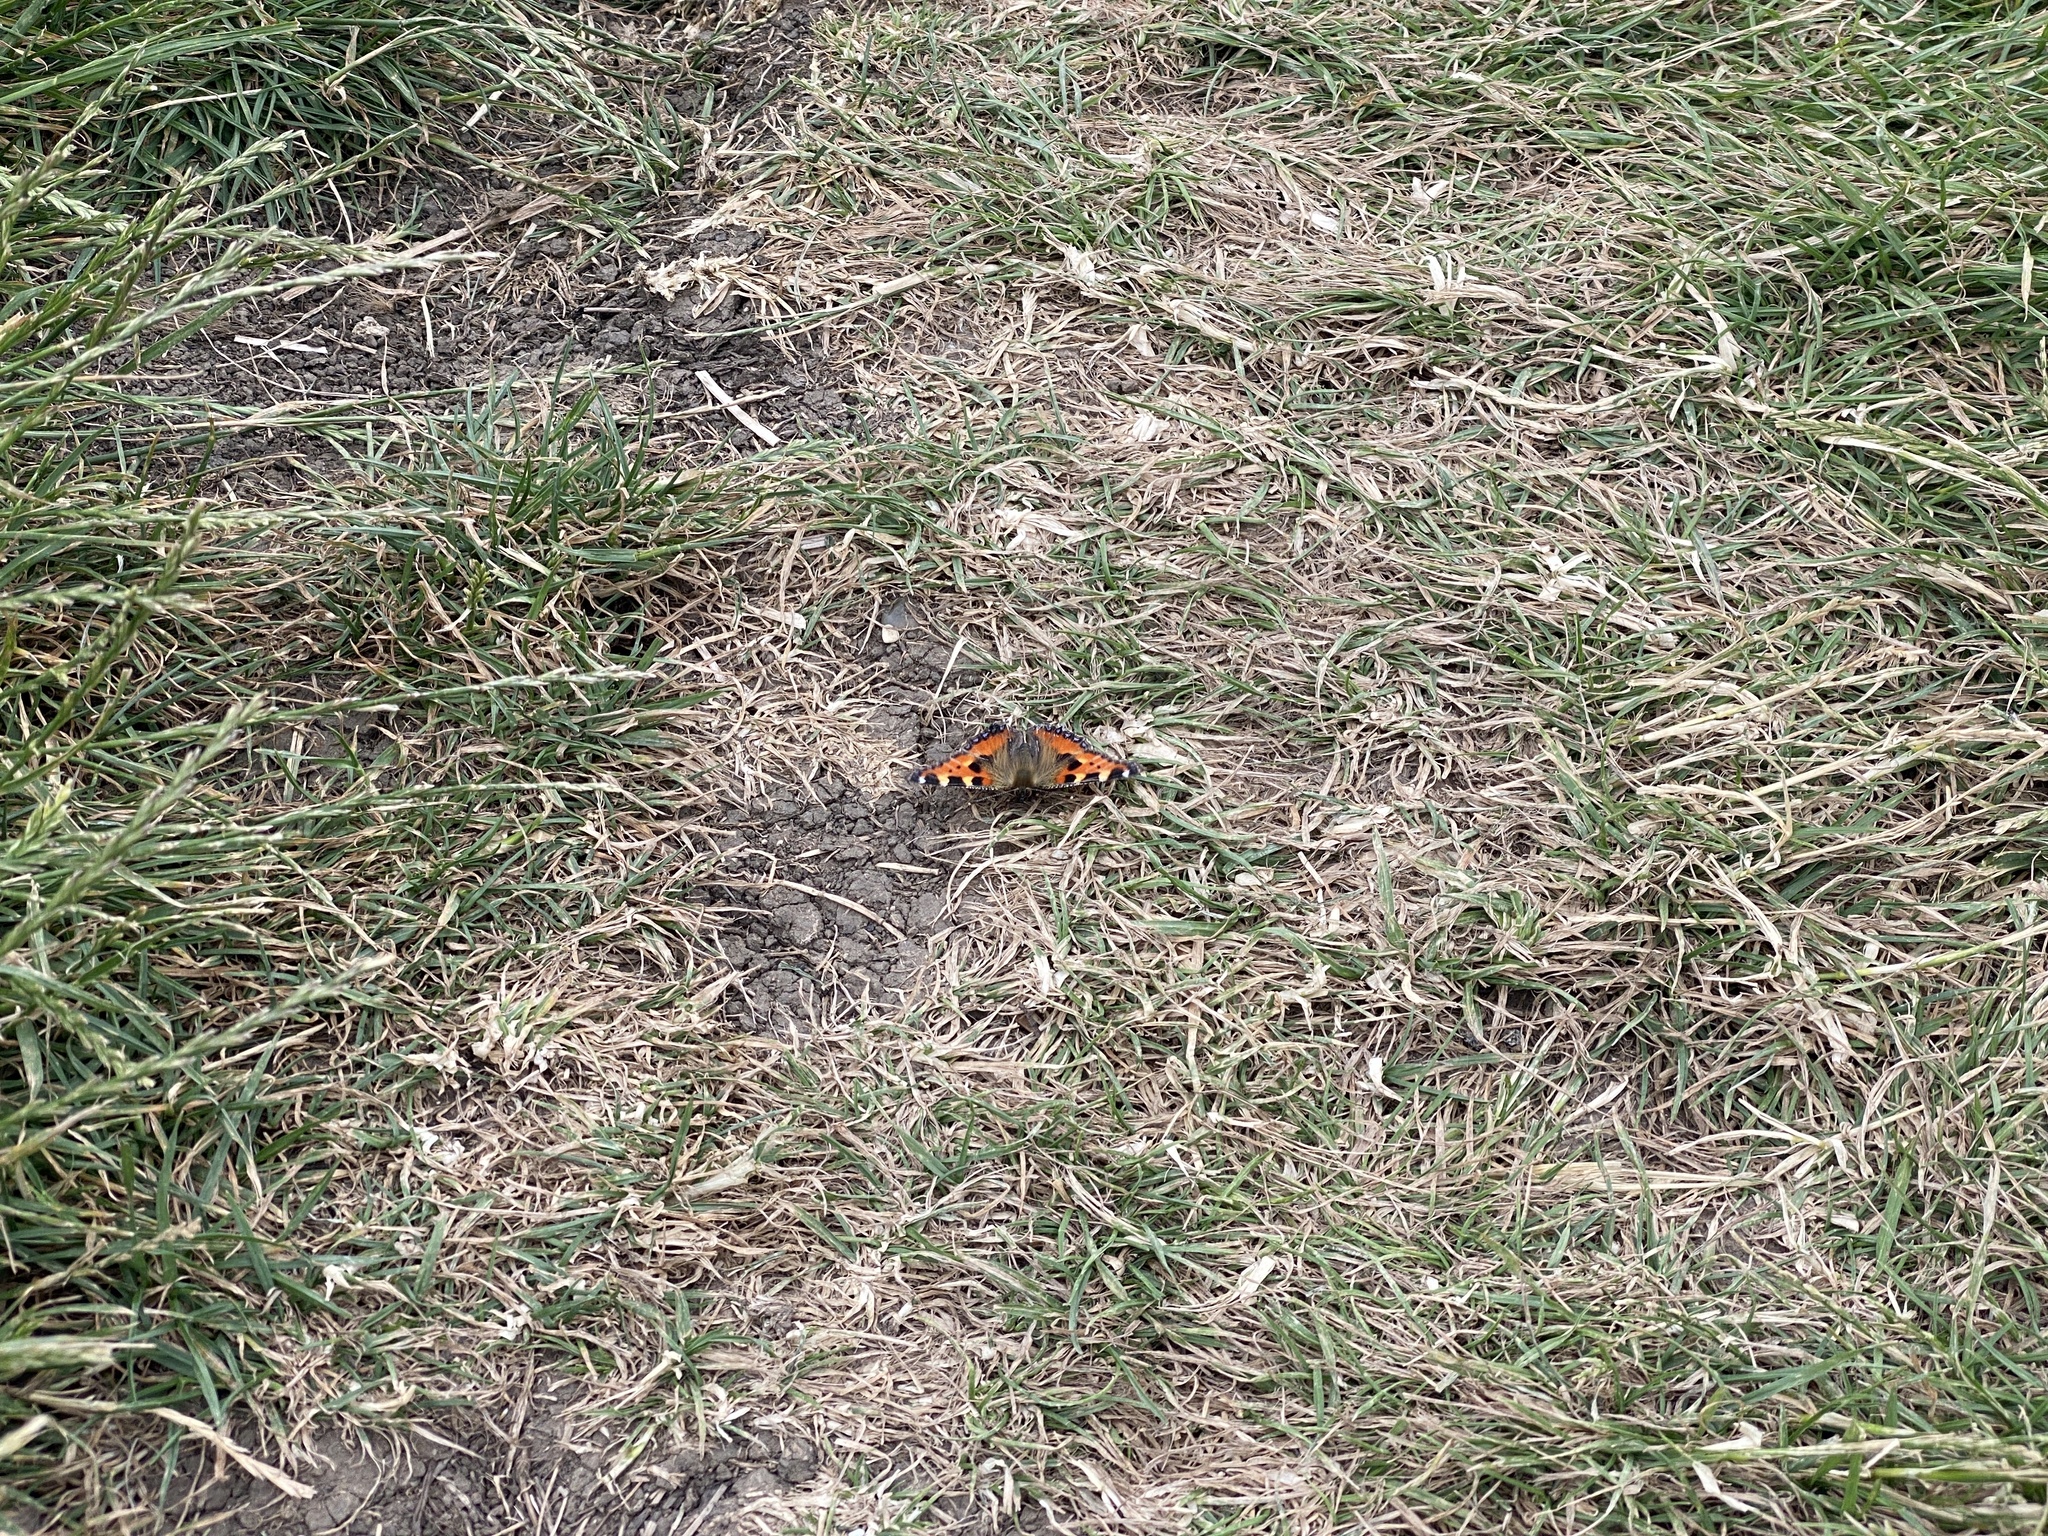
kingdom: Animalia
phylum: Arthropoda
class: Insecta
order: Lepidoptera
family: Nymphalidae
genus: Aglais
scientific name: Aglais urticae
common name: Small tortoiseshell
